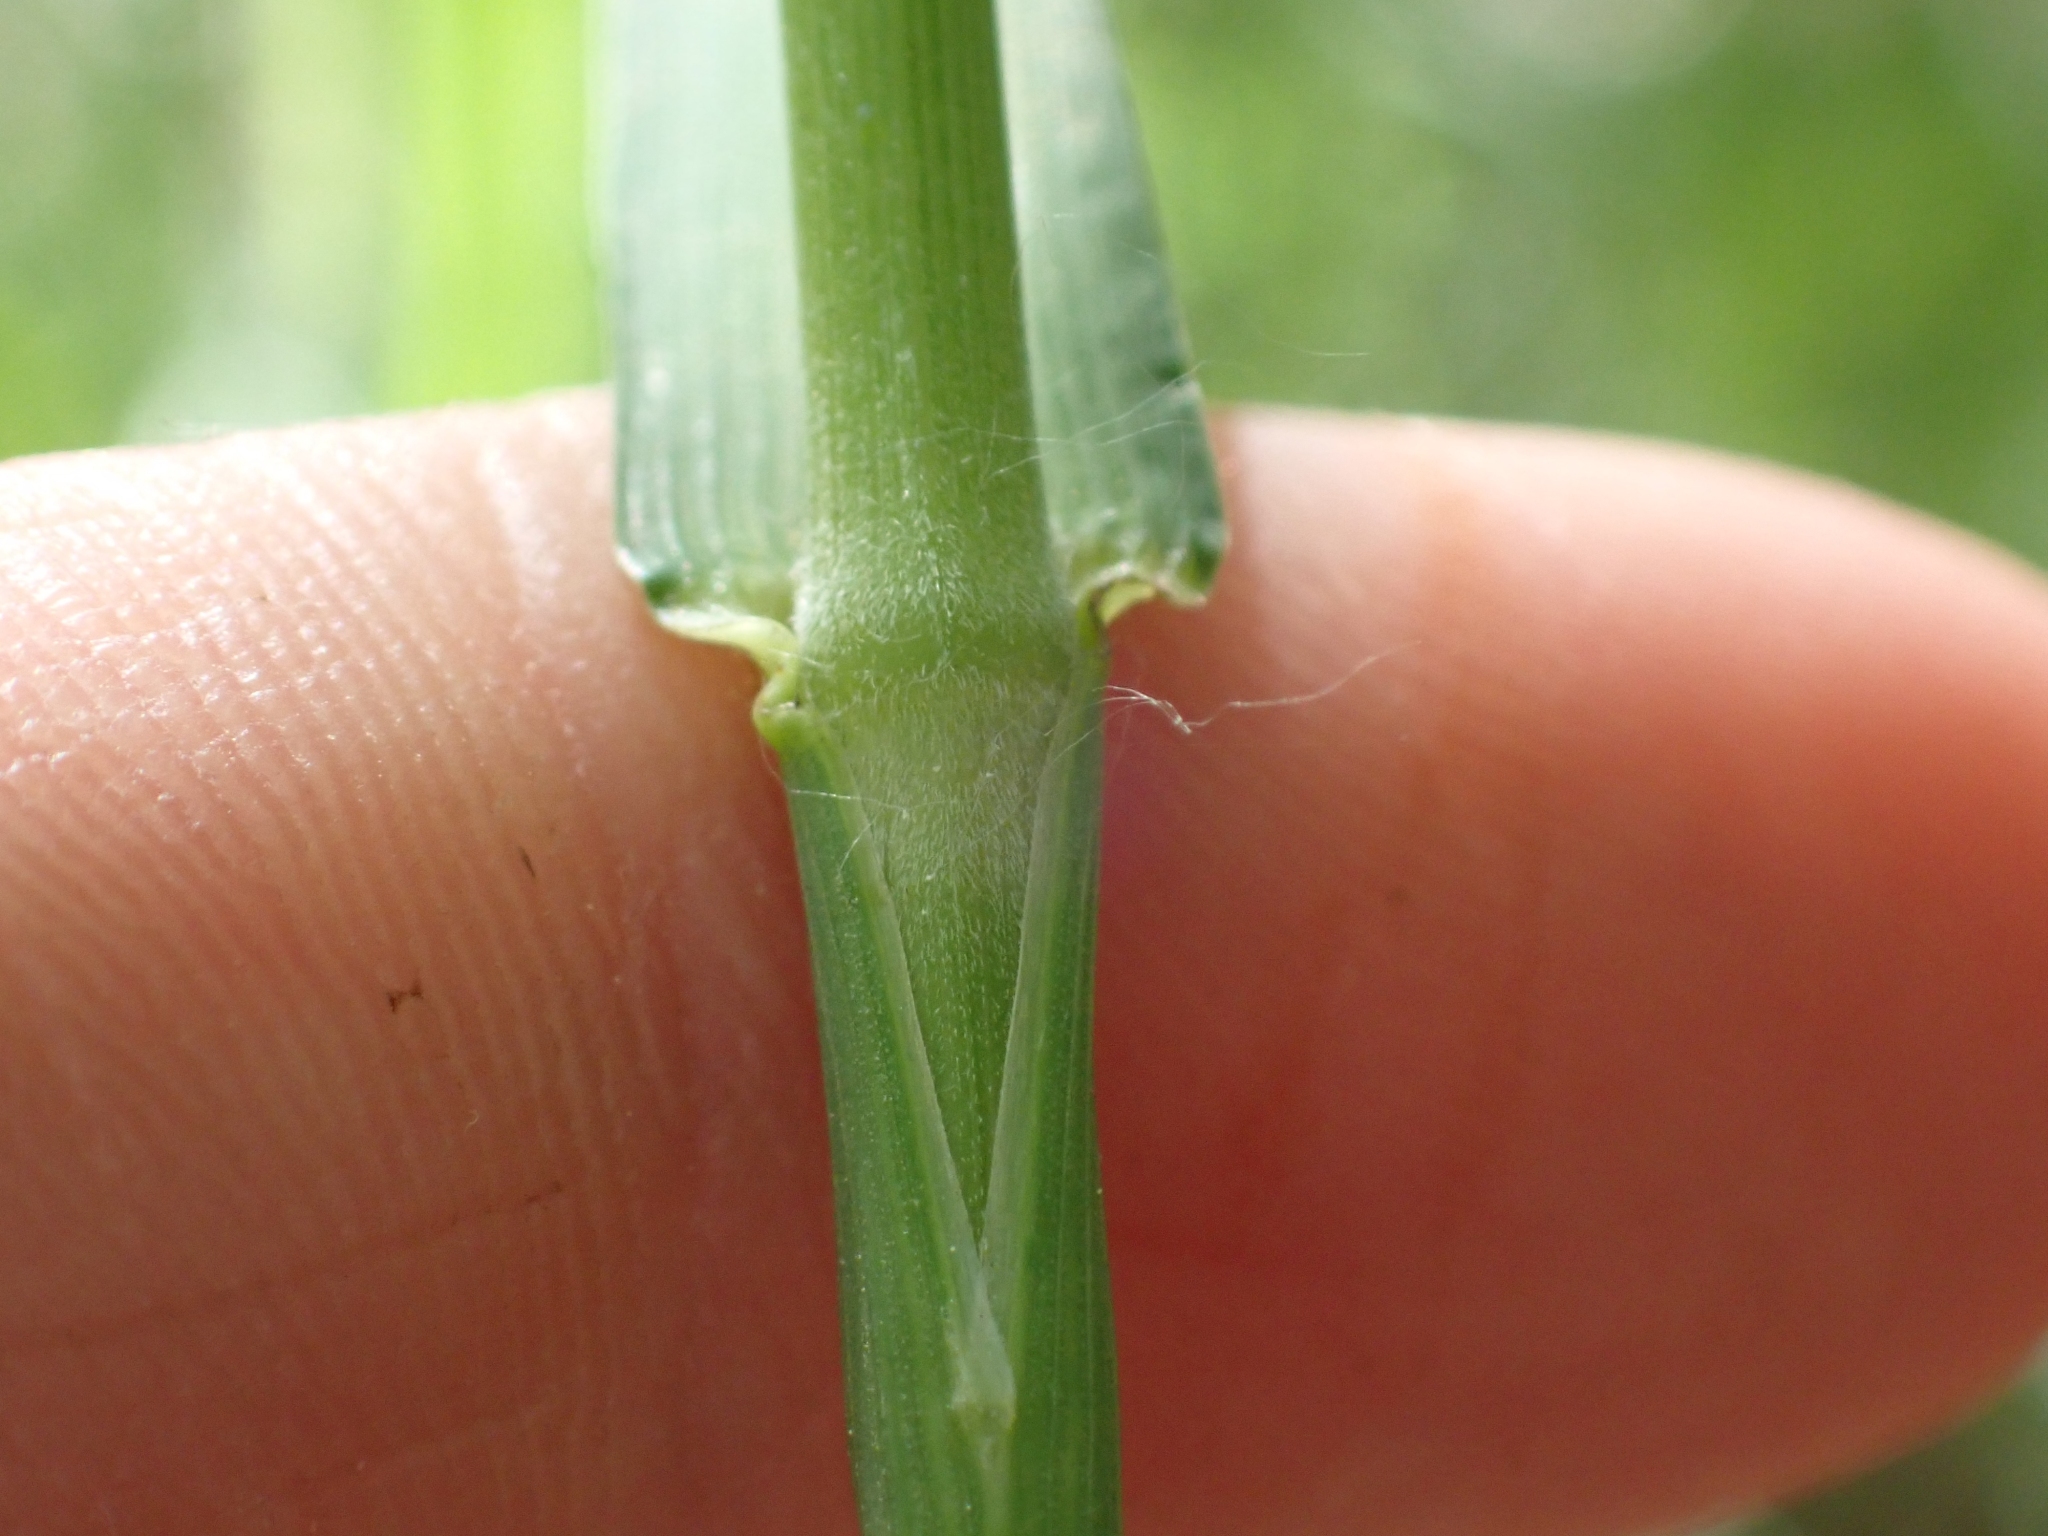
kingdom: Plantae
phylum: Tracheophyta
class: Liliopsida
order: Poales
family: Poaceae
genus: Bromus
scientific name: Bromus inermis
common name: Smooth brome
